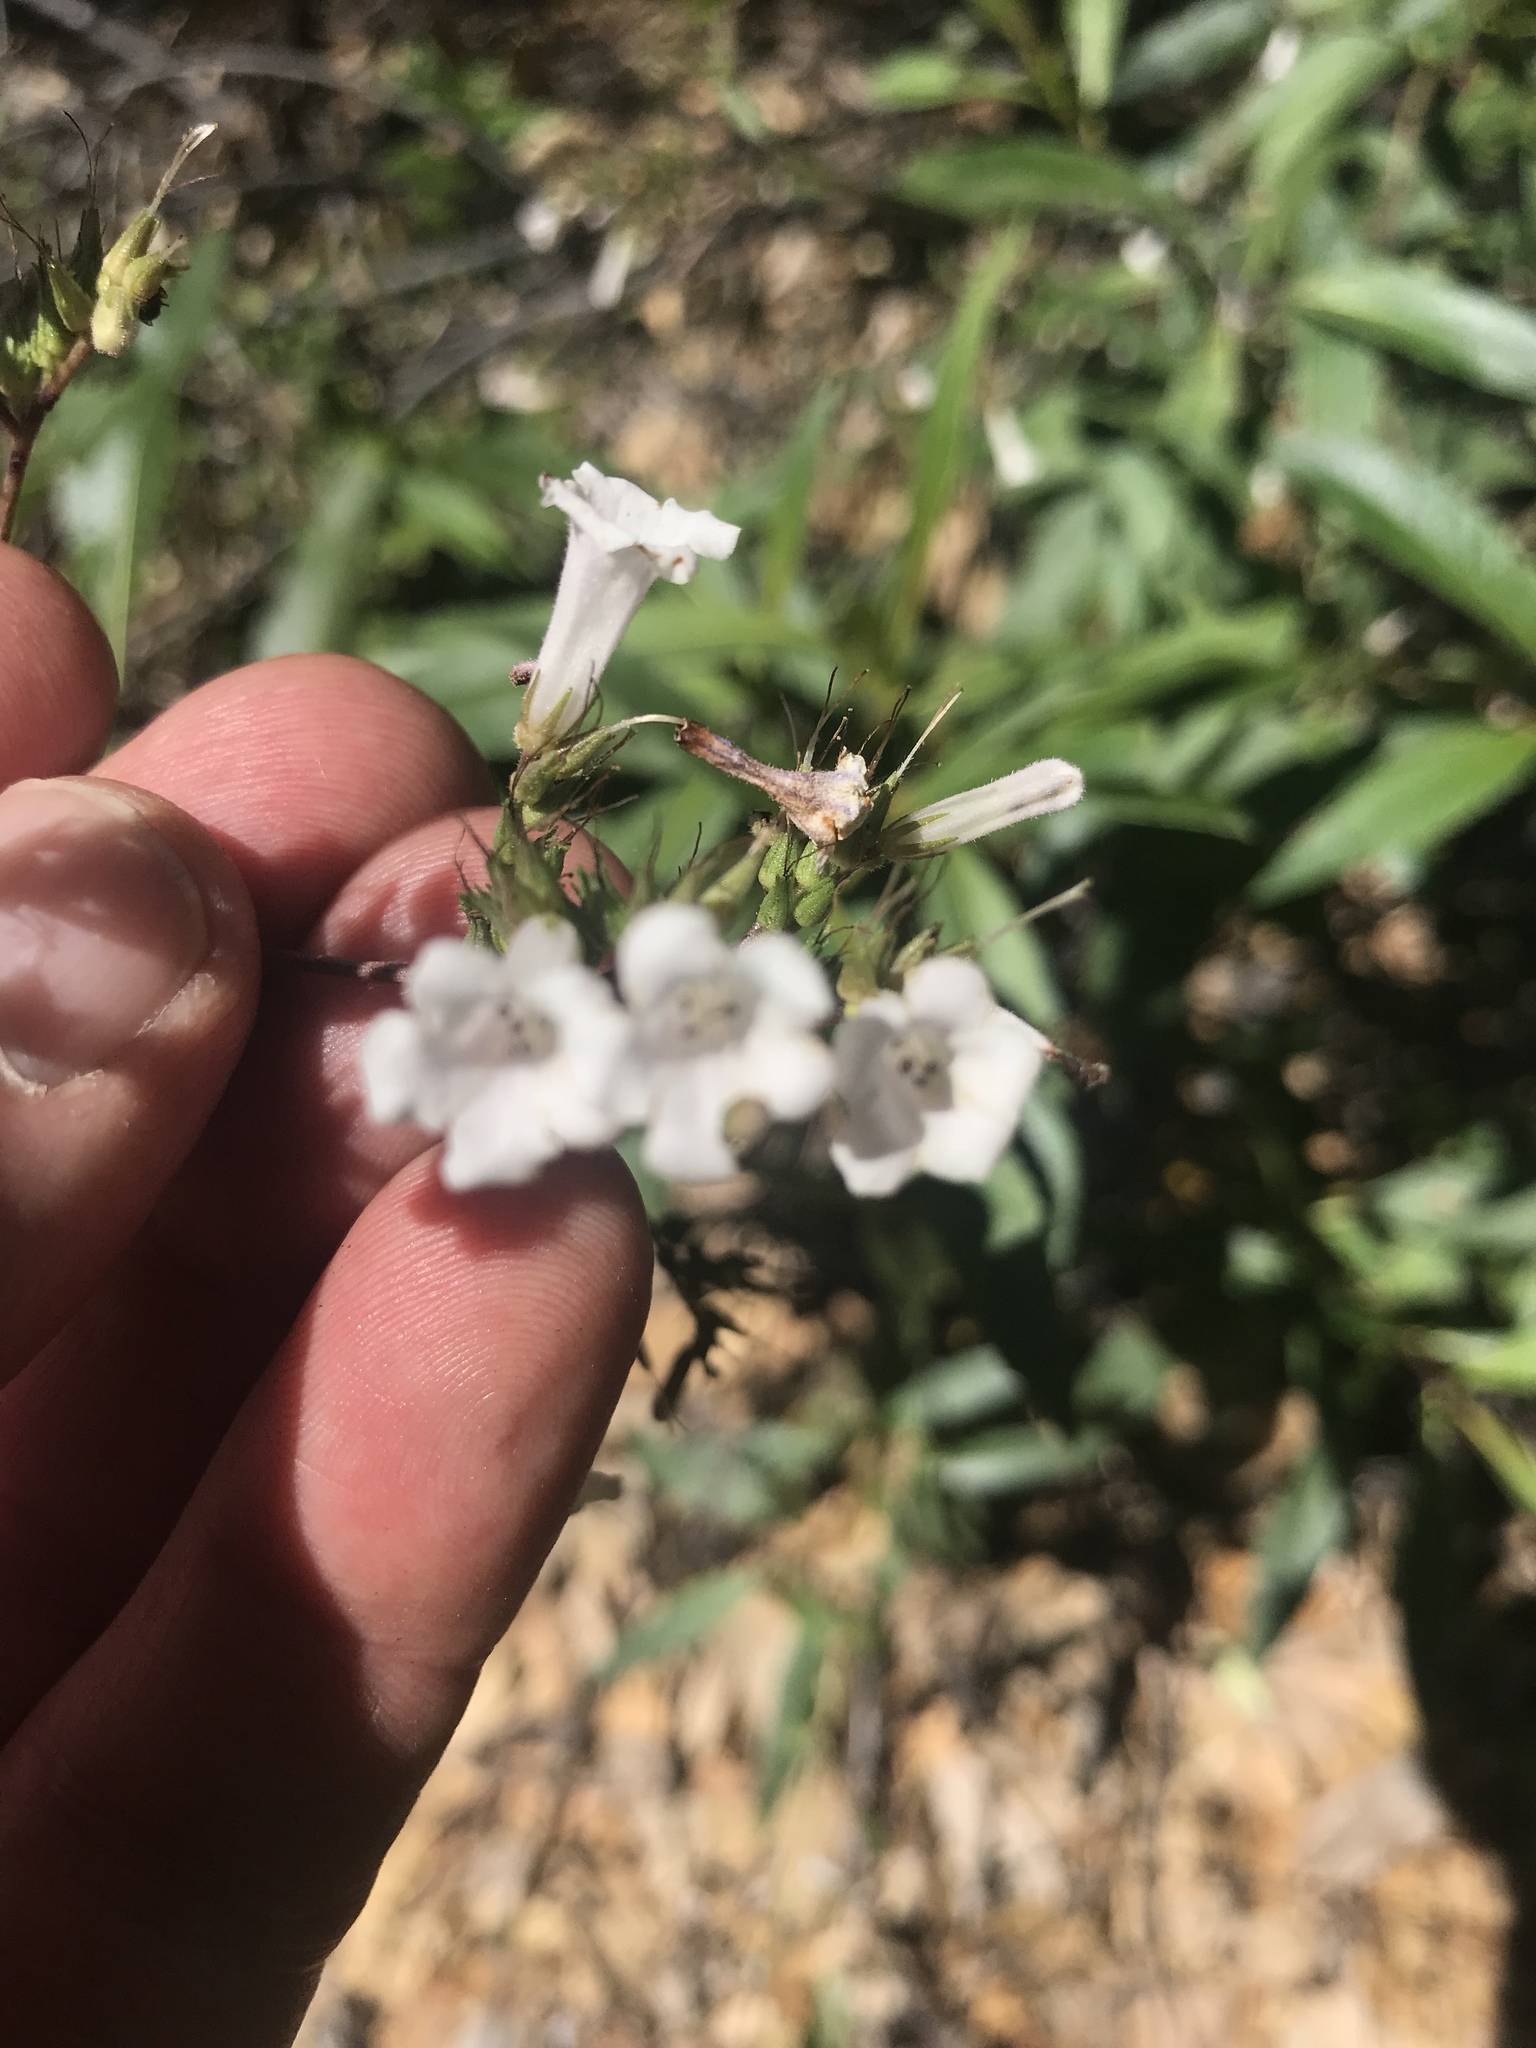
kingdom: Plantae
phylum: Tracheophyta
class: Magnoliopsida
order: Boraginales
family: Namaceae
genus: Eriodictyon
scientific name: Eriodictyon californicum
